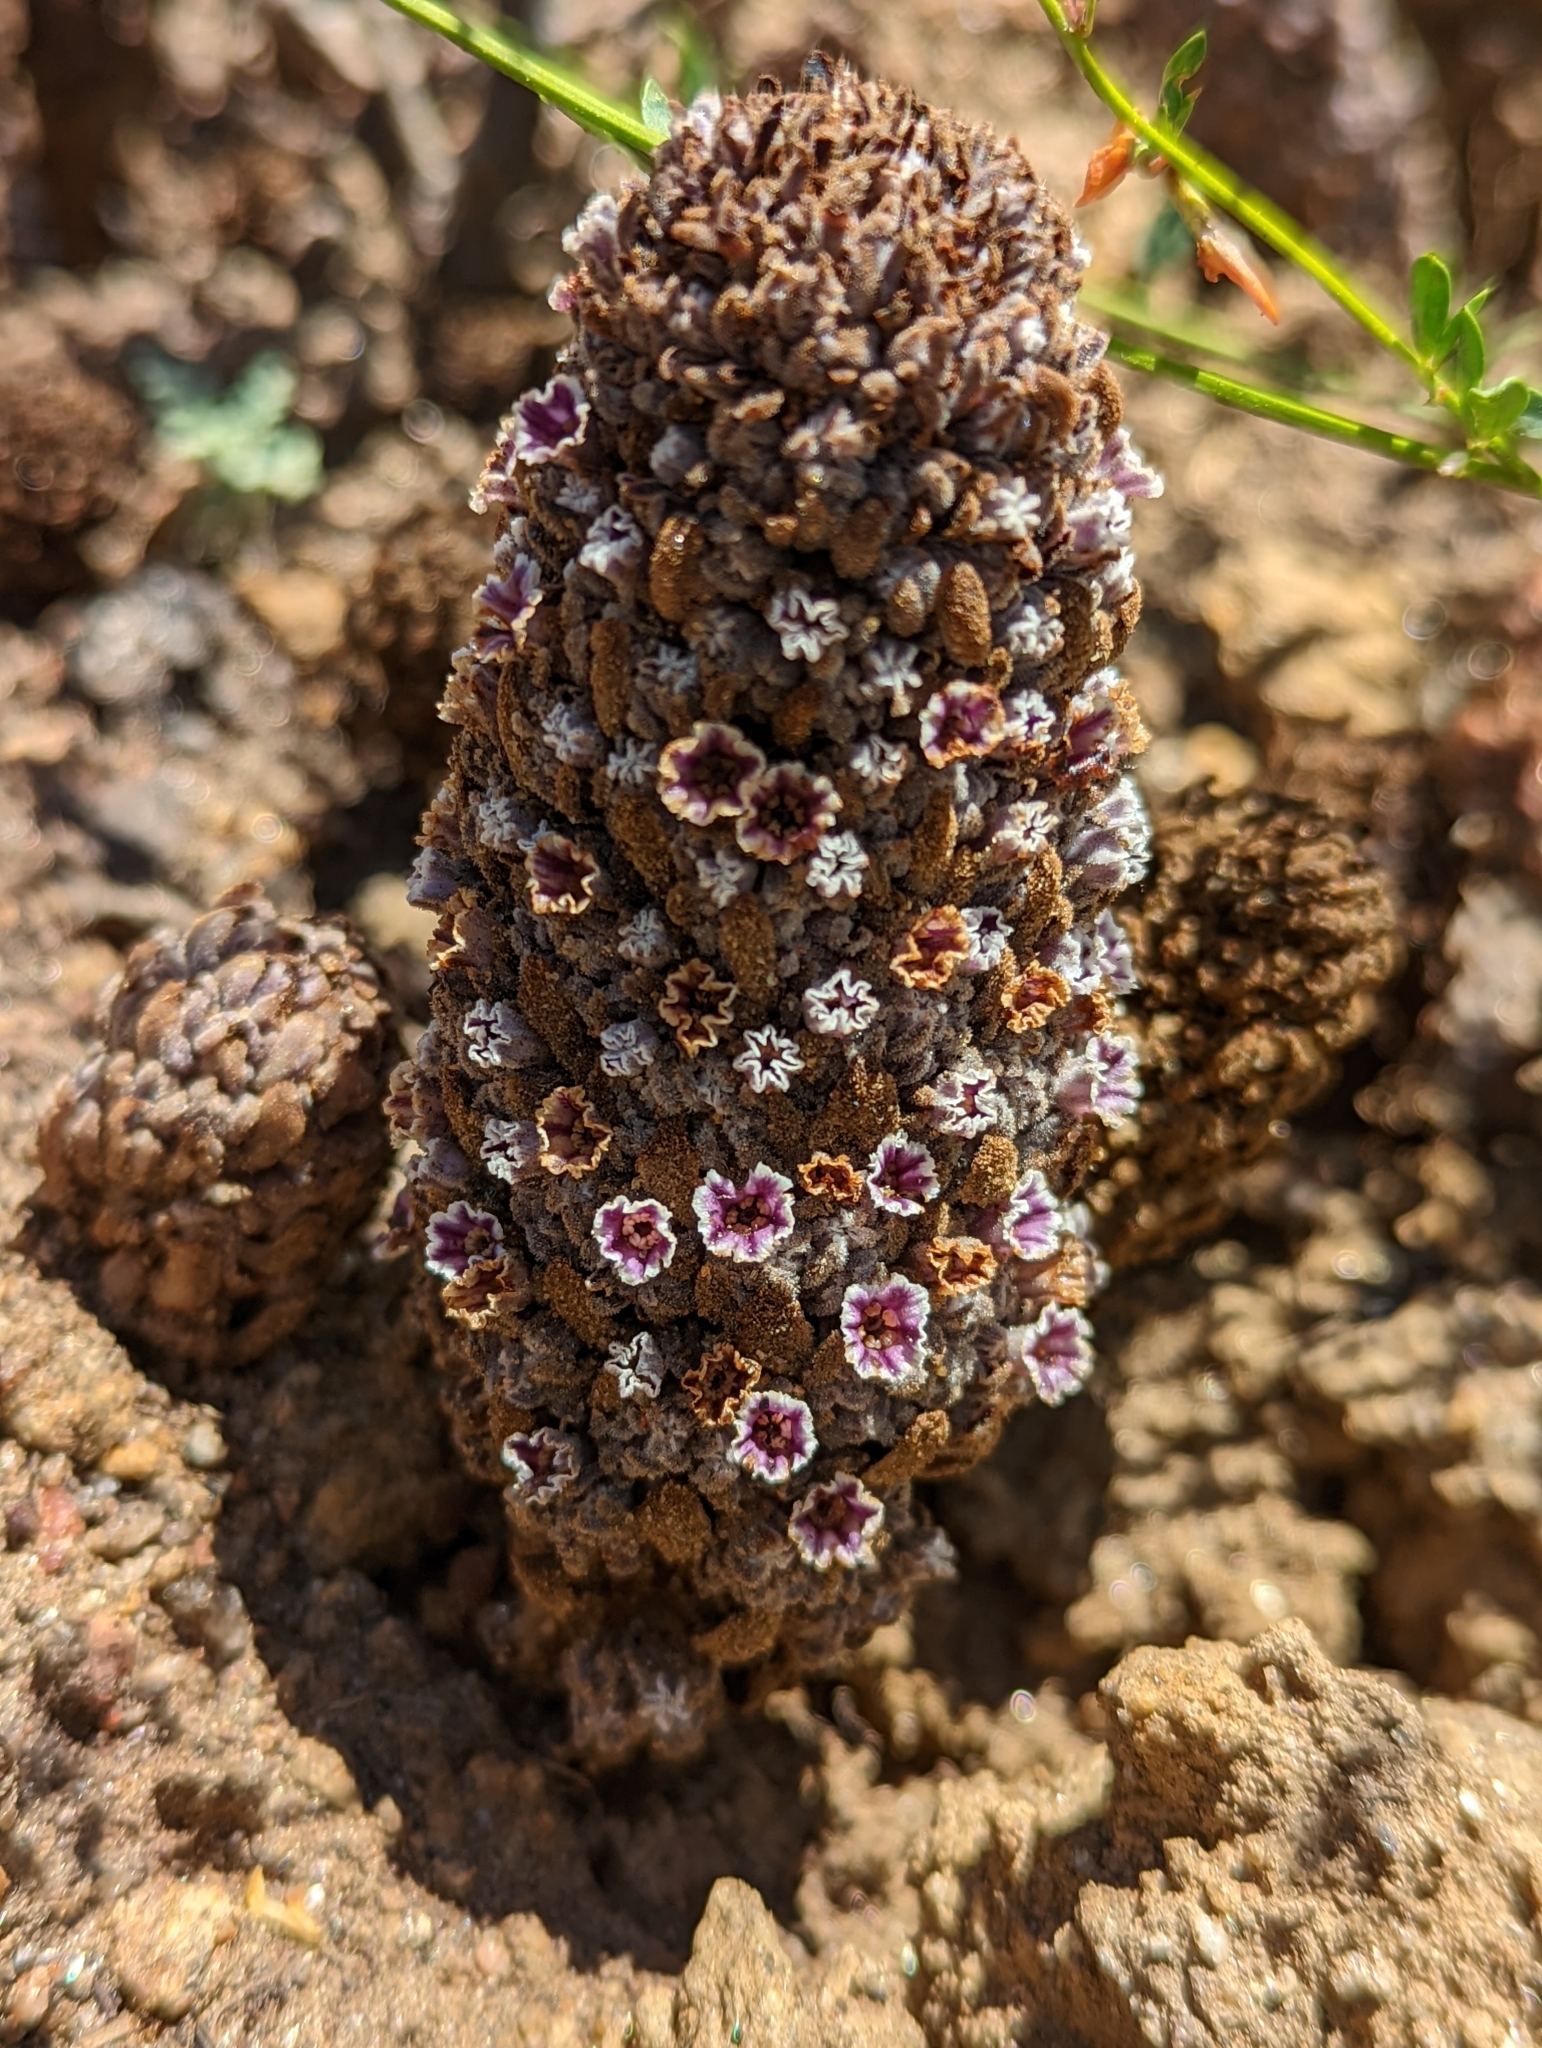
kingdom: Plantae
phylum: Tracheophyta
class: Magnoliopsida
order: Boraginales
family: Lennoaceae
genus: Pholisma
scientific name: Pholisma arenarium
